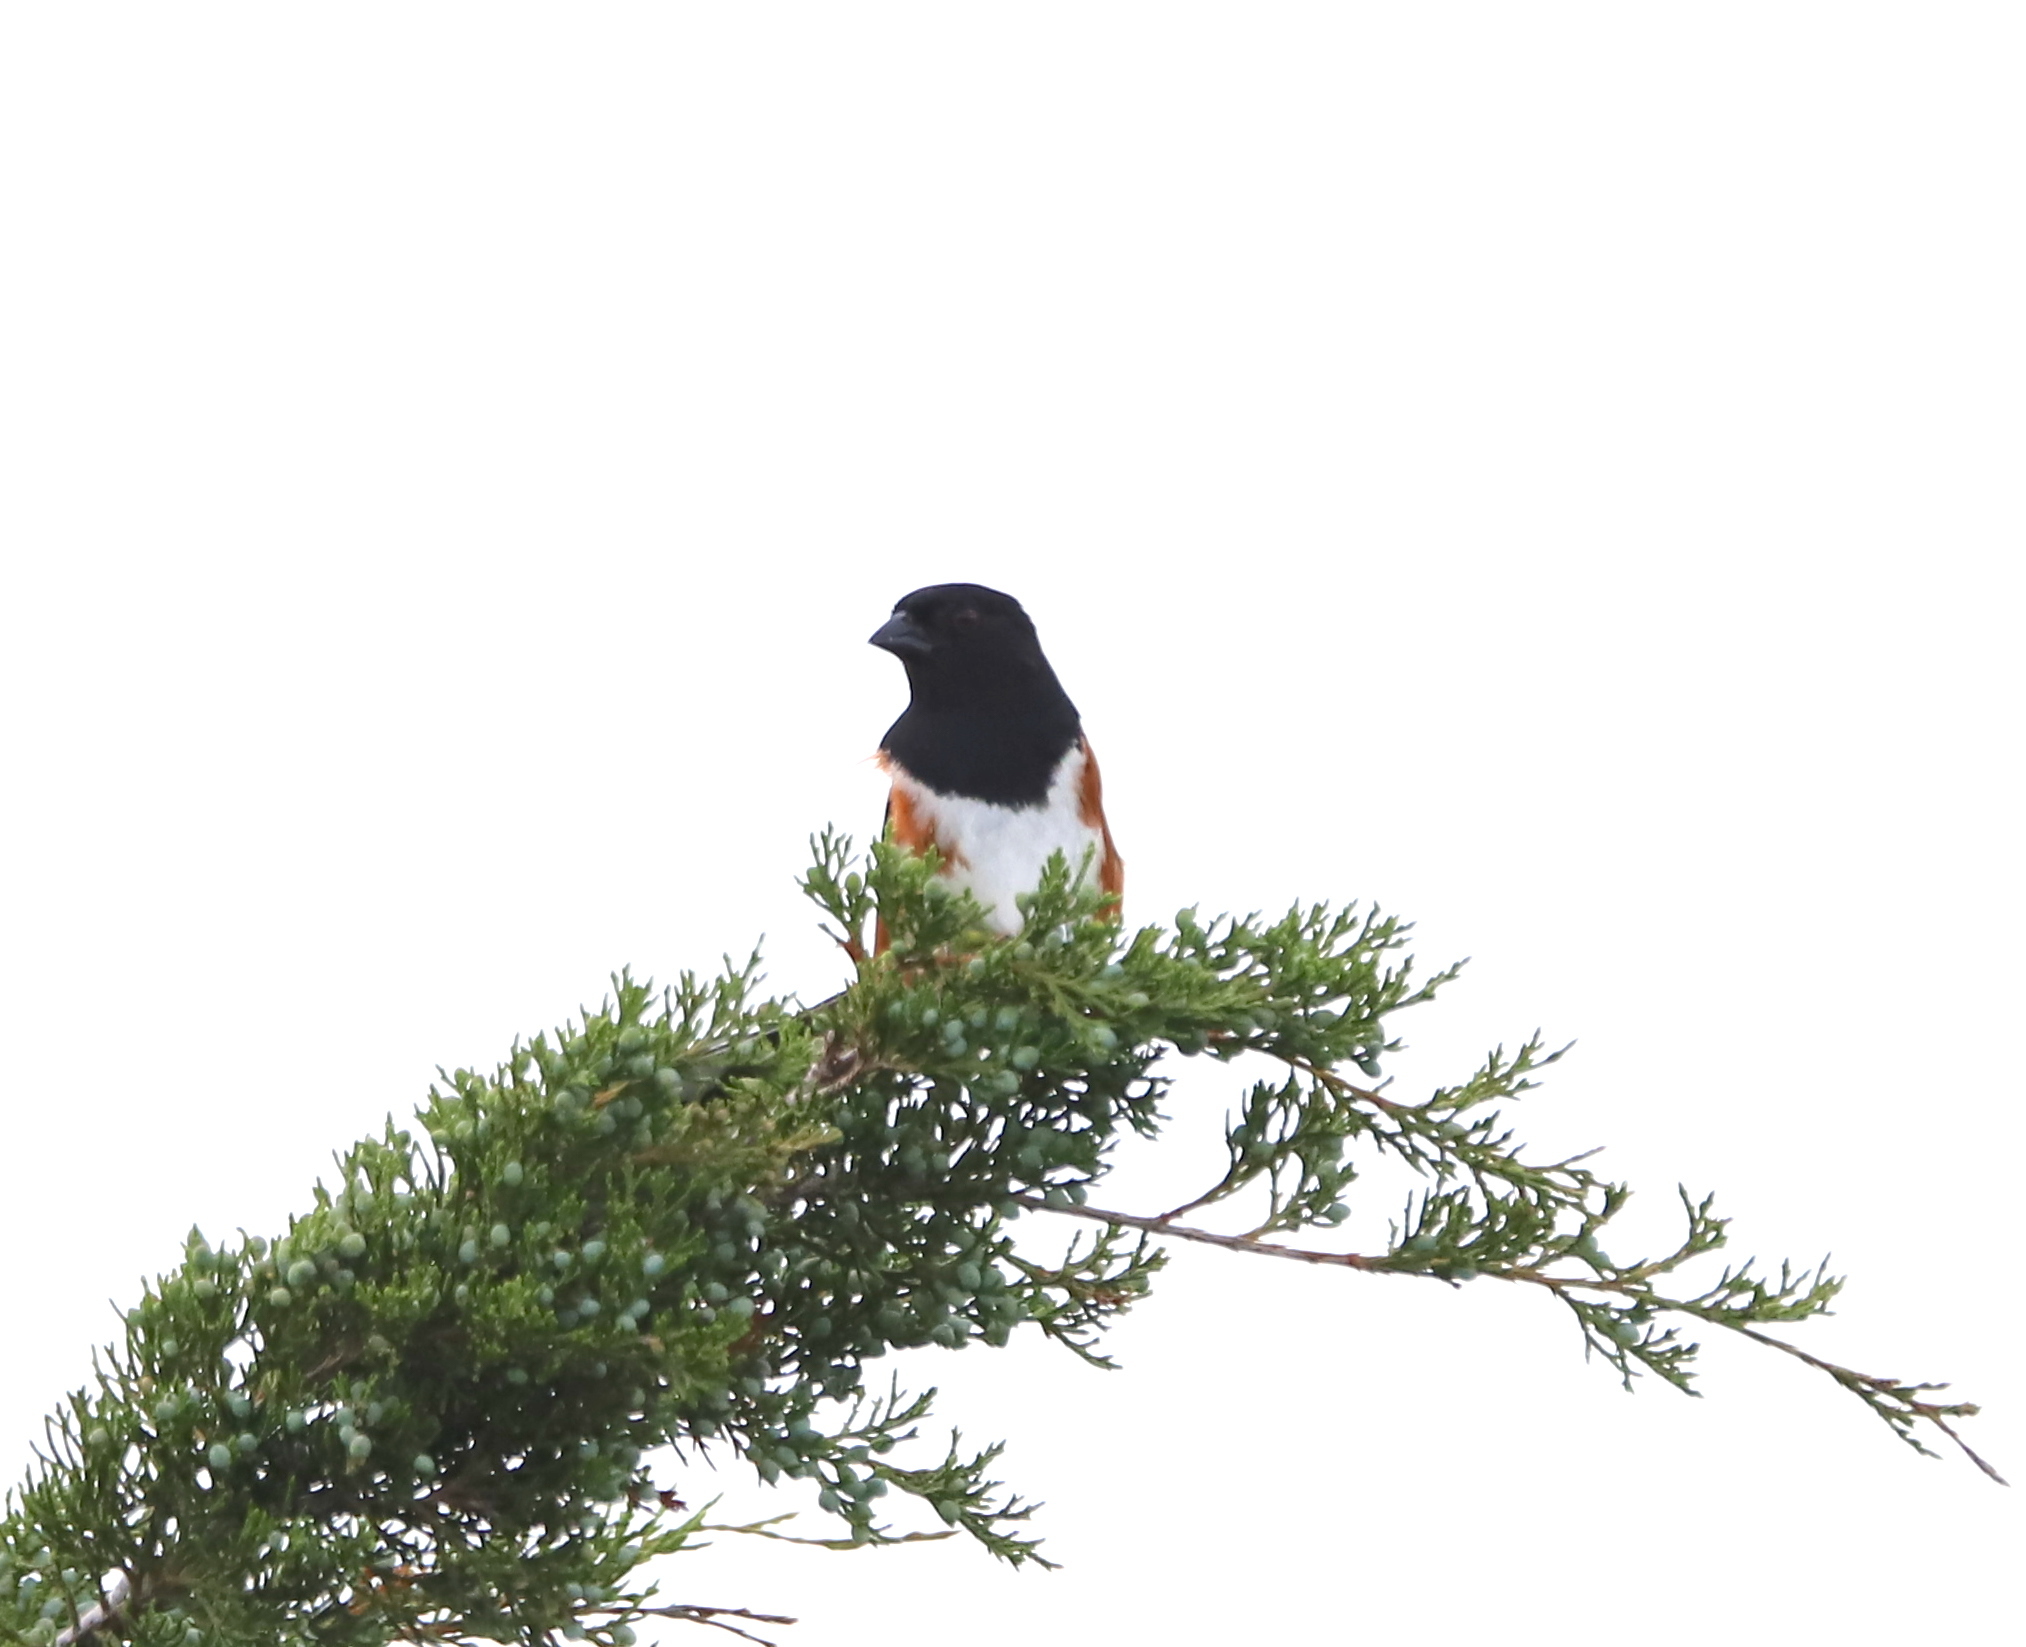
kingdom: Animalia
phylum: Chordata
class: Aves
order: Passeriformes
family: Passerellidae
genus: Pipilo
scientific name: Pipilo erythrophthalmus
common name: Eastern towhee
